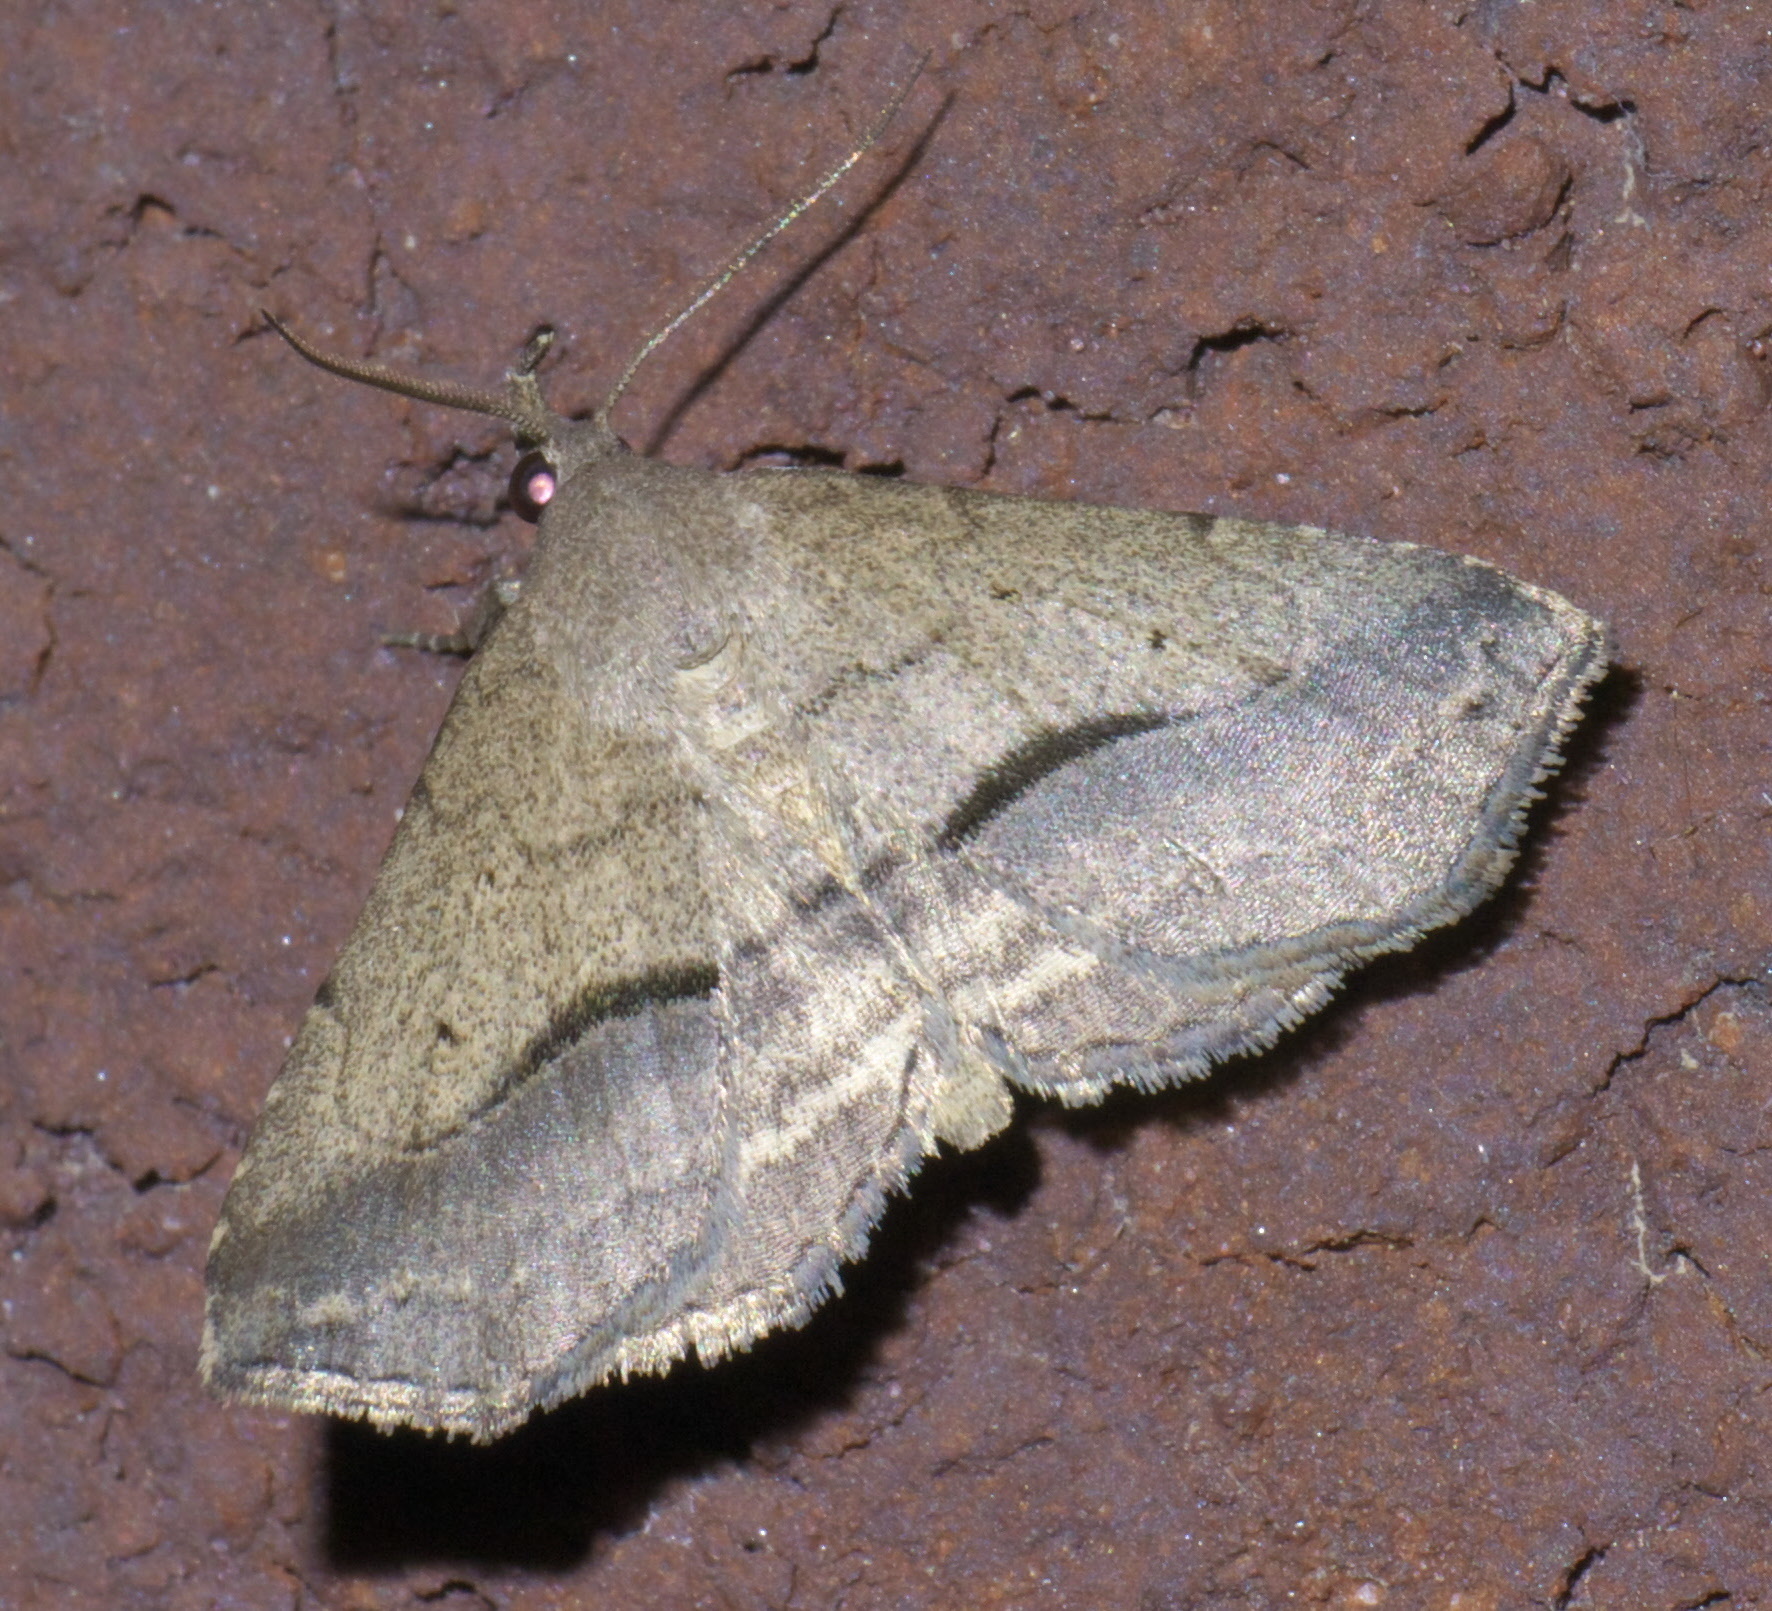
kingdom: Animalia
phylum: Arthropoda
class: Insecta
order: Lepidoptera
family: Erebidae
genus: Spargaloma
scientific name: Spargaloma perditalis
